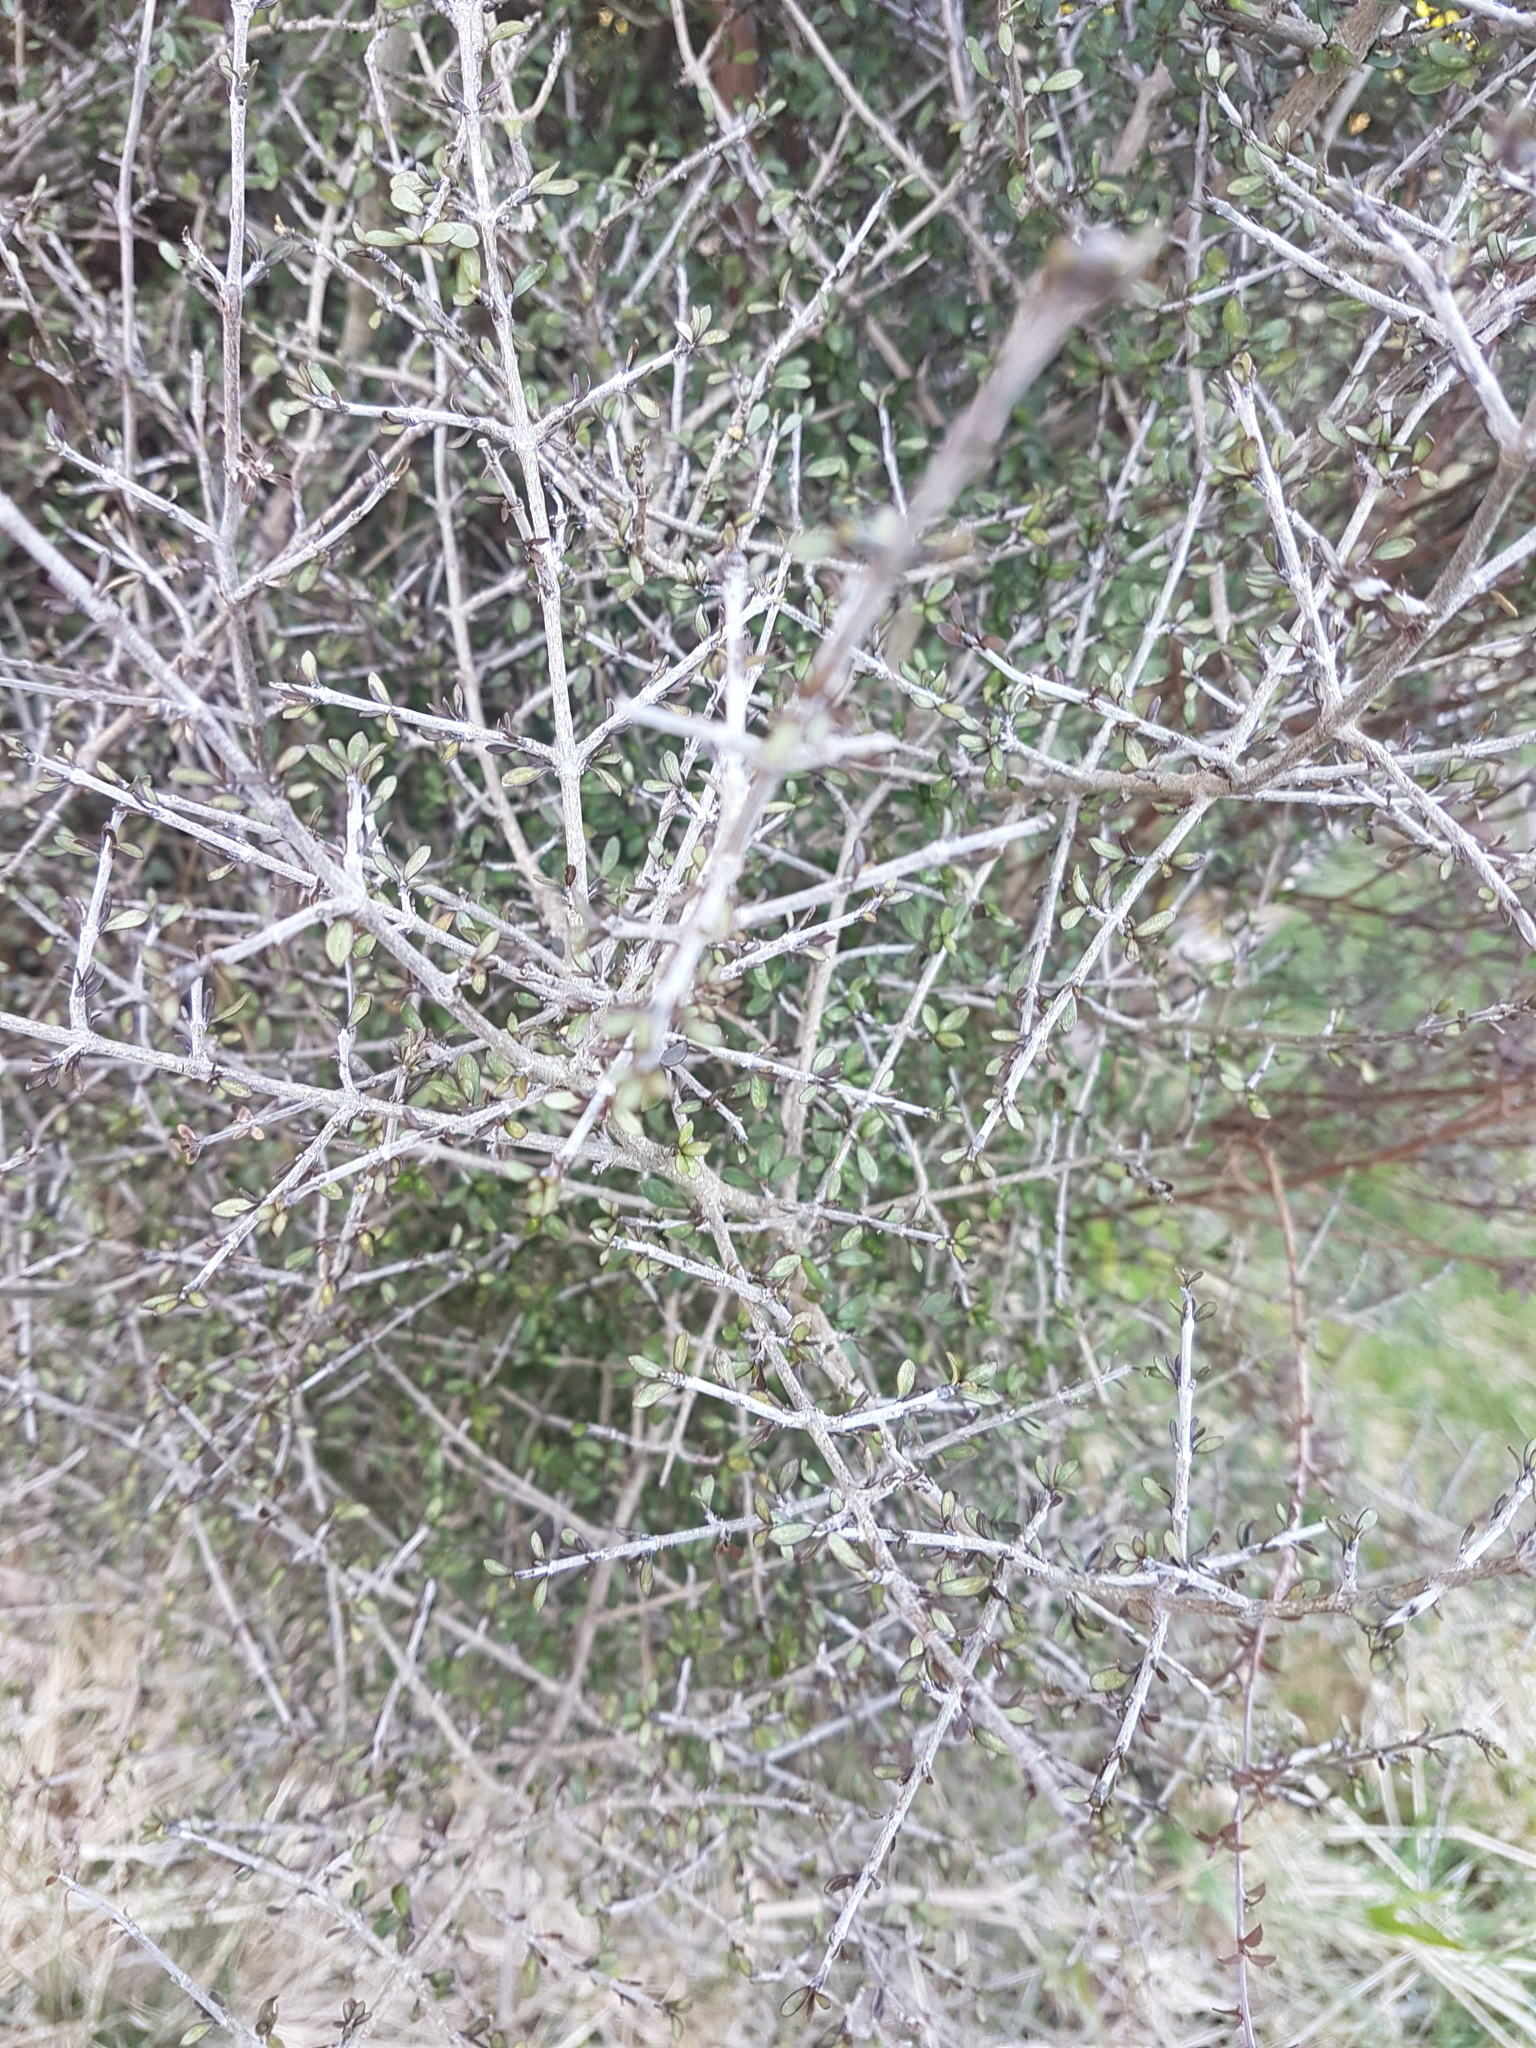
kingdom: Plantae
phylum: Tracheophyta
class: Magnoliopsida
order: Gentianales
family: Rubiaceae
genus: Coprosma
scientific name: Coprosma dumosa
